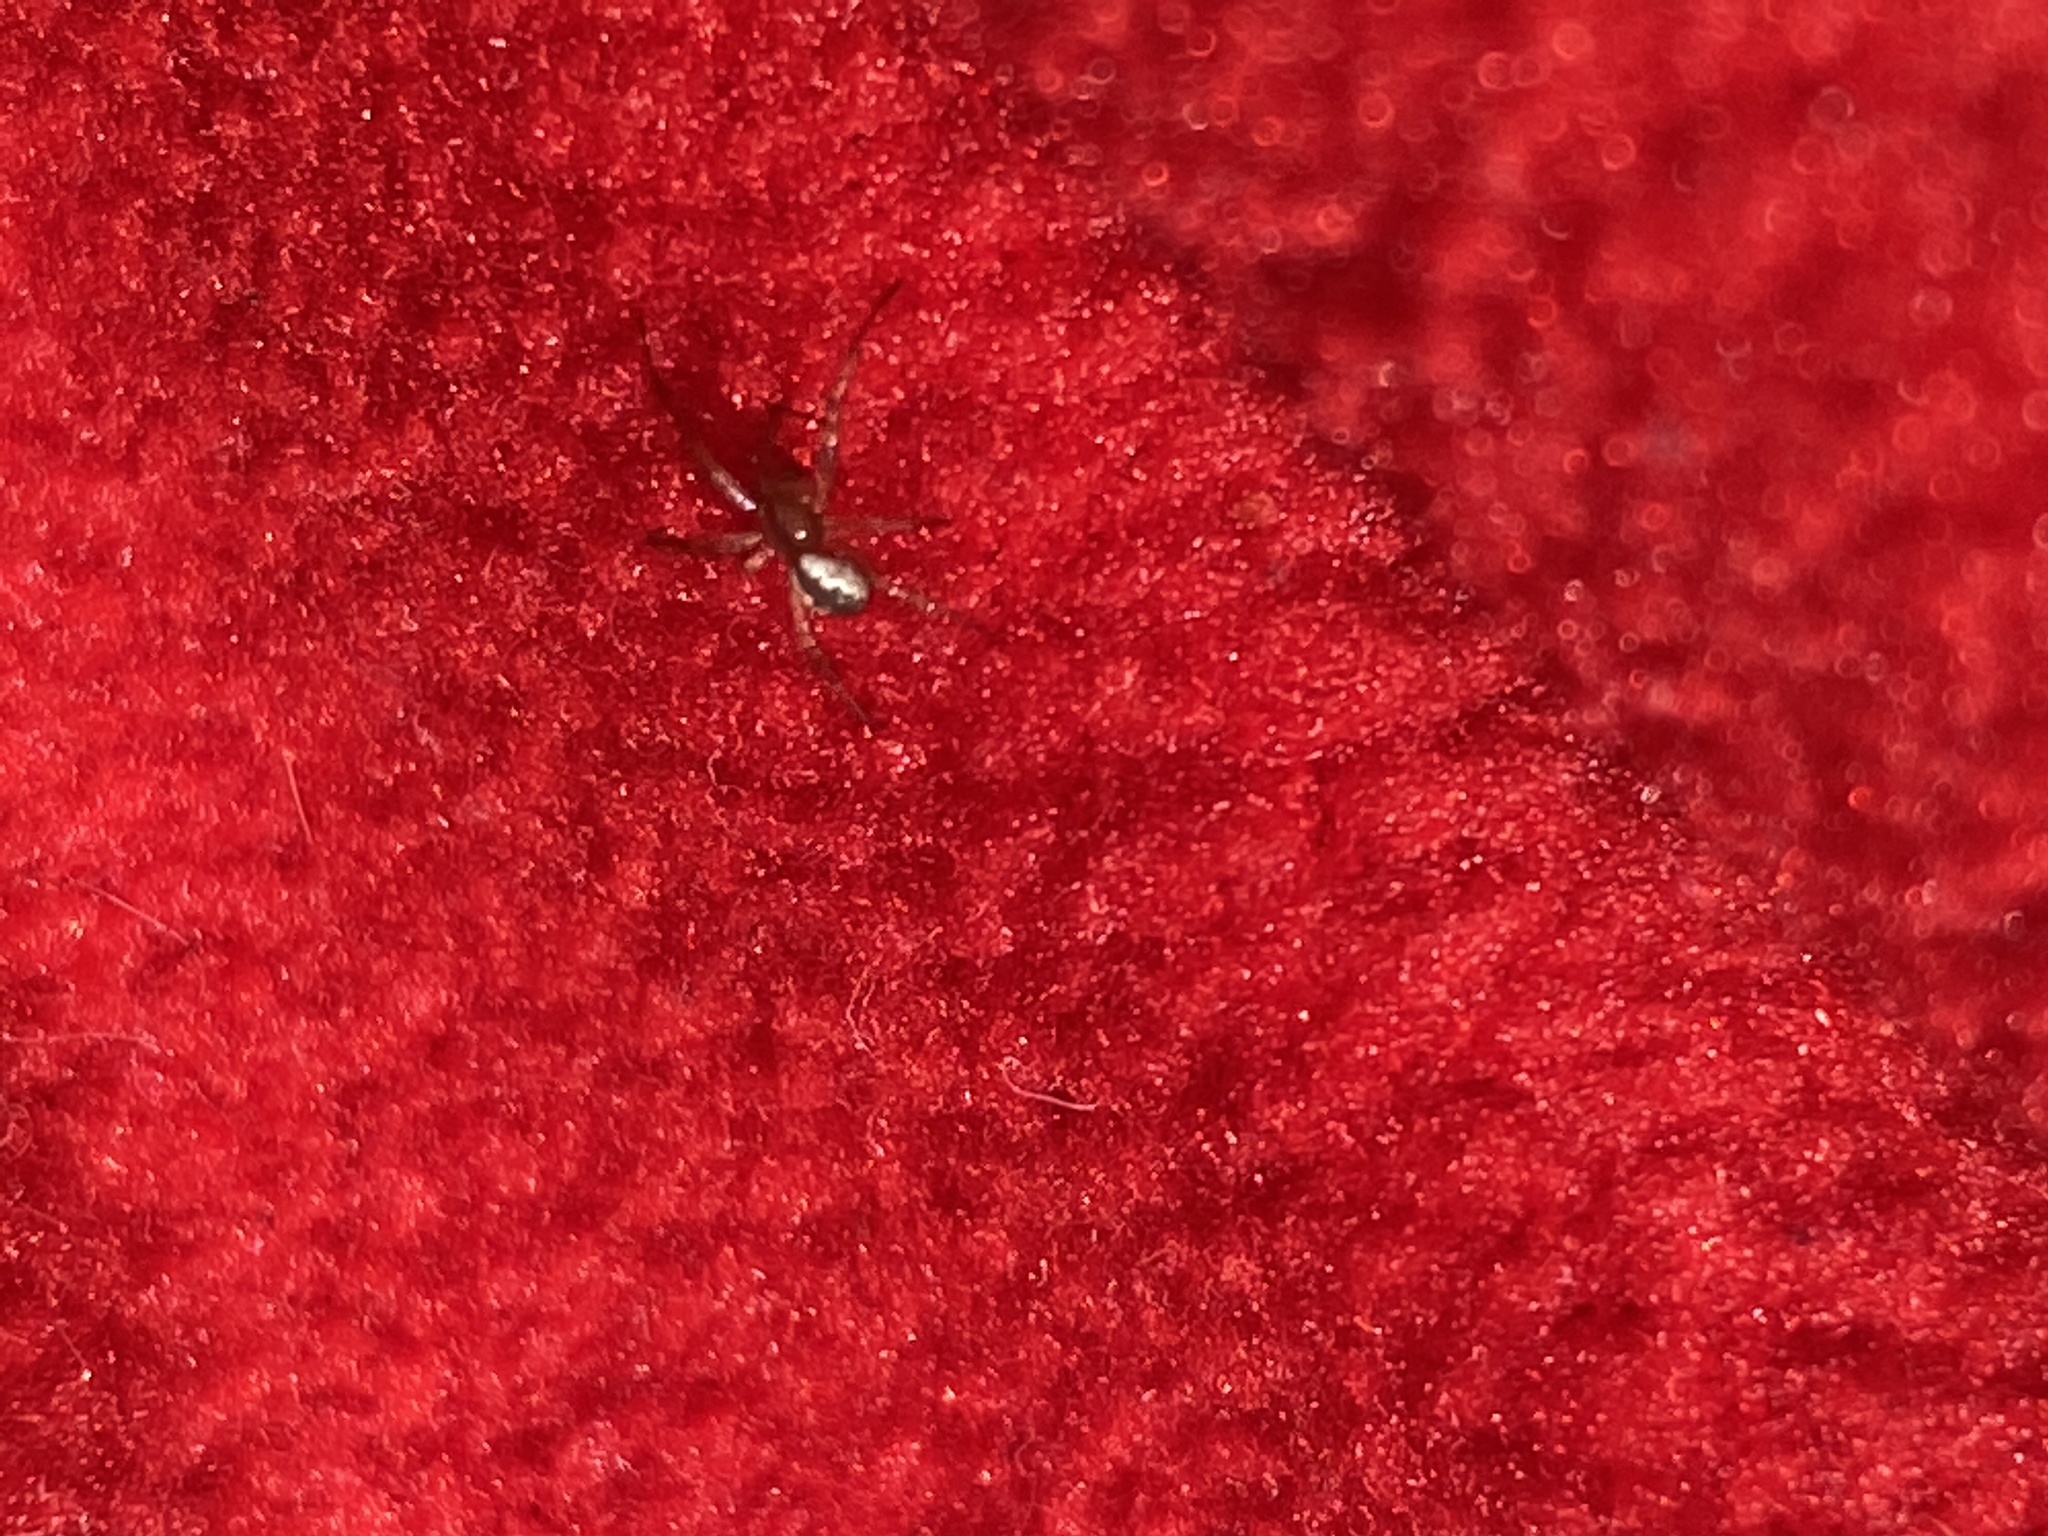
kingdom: Animalia
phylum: Arthropoda
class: Arachnida
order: Araneae
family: Araneidae
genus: Mangora
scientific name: Mangora placida
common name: Tuft-legged orbweaver
